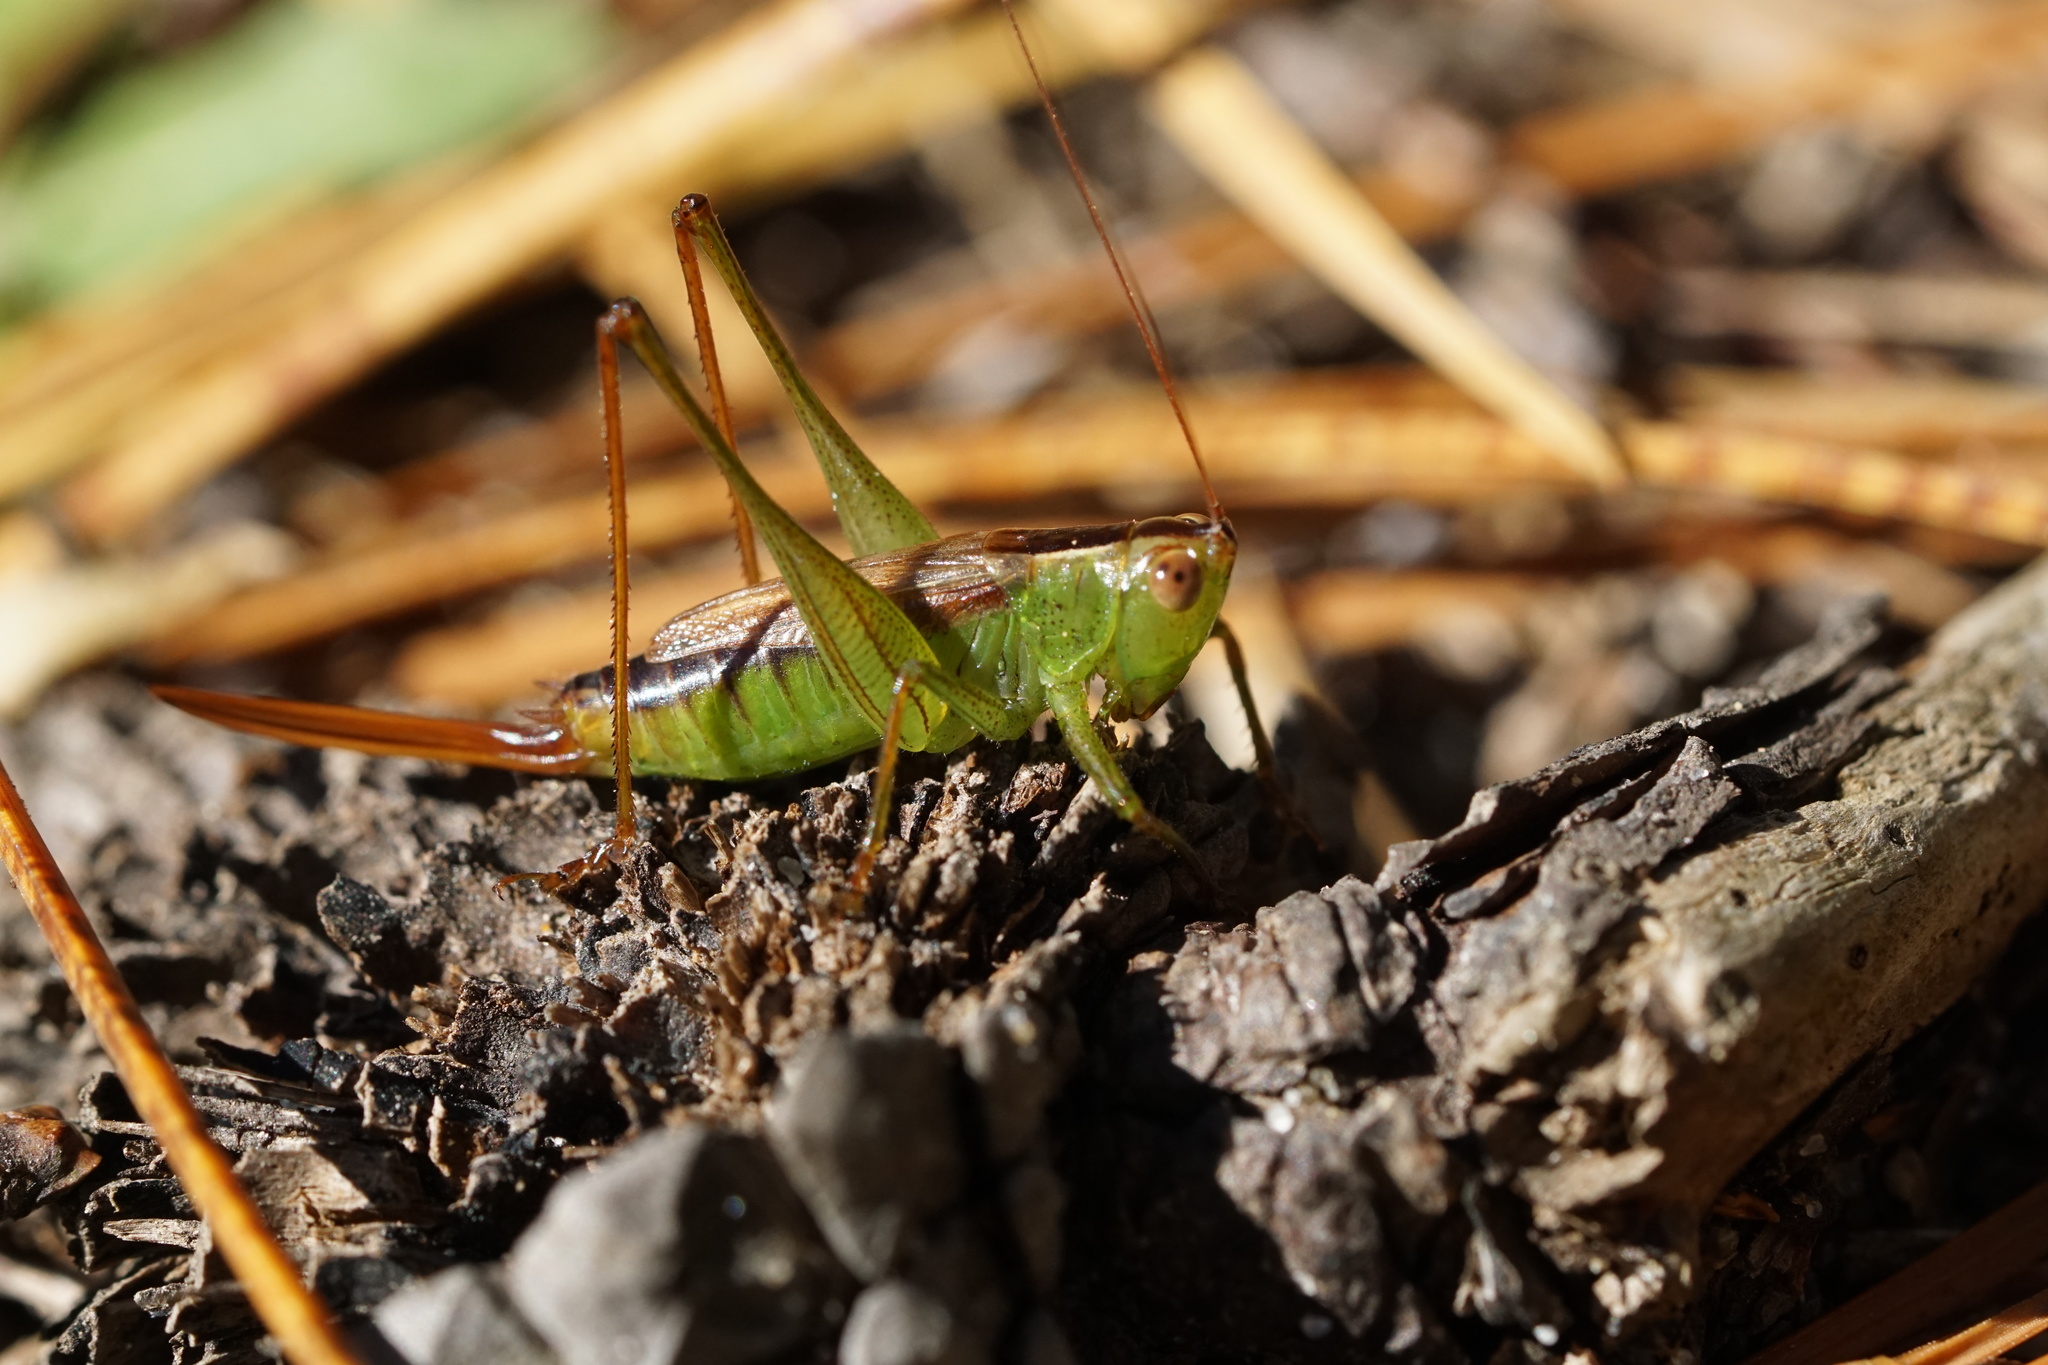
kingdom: Animalia
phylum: Arthropoda
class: Insecta
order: Orthoptera
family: Tettigoniidae
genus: Conocephalus
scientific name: Conocephalus brevipennis
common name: Short-winged meadow katydid
